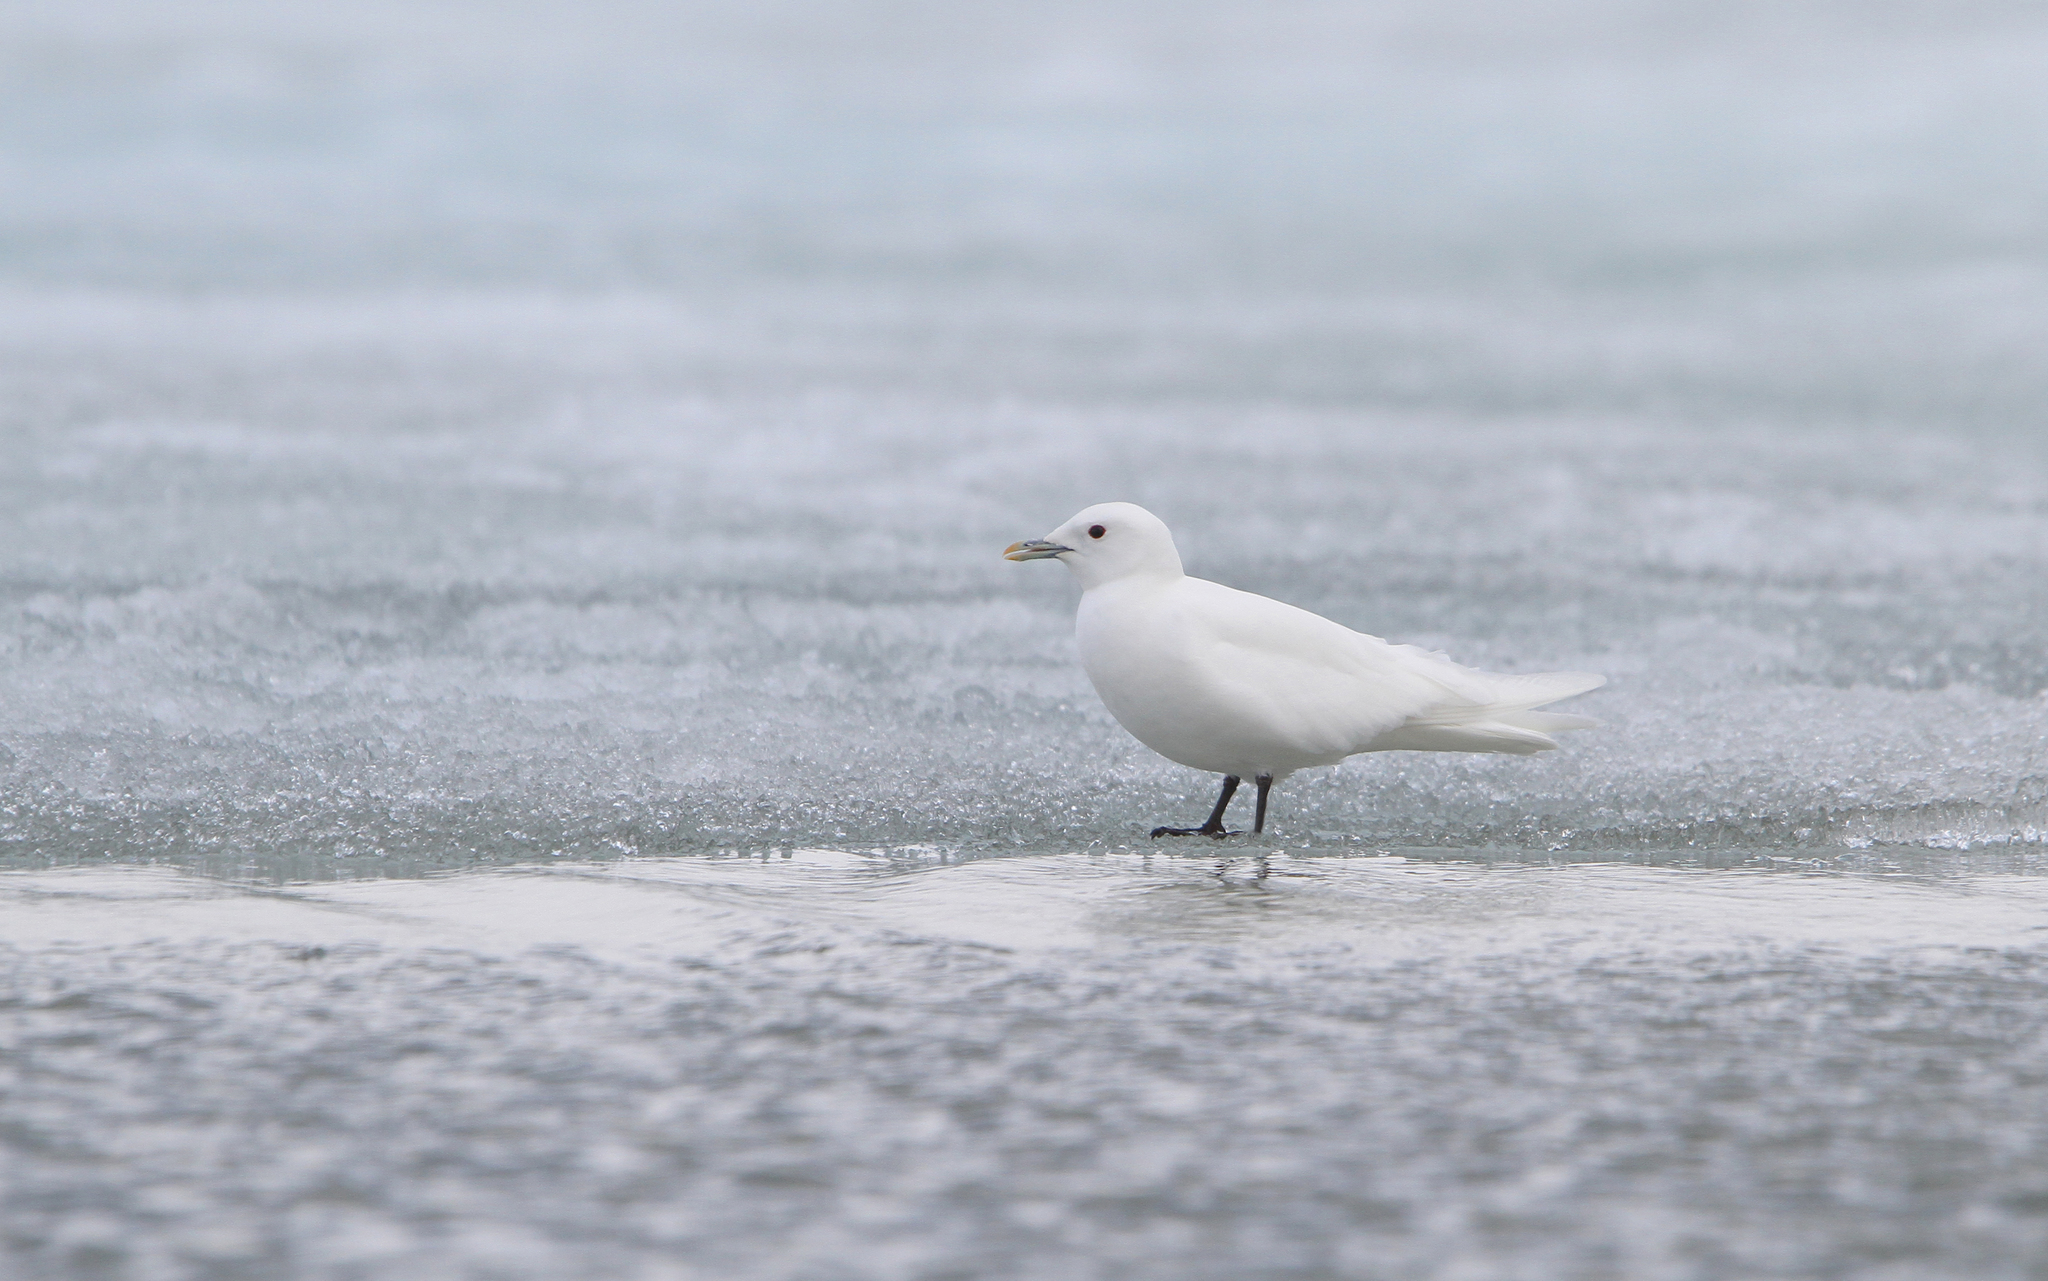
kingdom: Animalia
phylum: Chordata
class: Aves
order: Charadriiformes
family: Laridae
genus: Pagophila
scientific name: Pagophila eburnea
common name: Ivory gull
